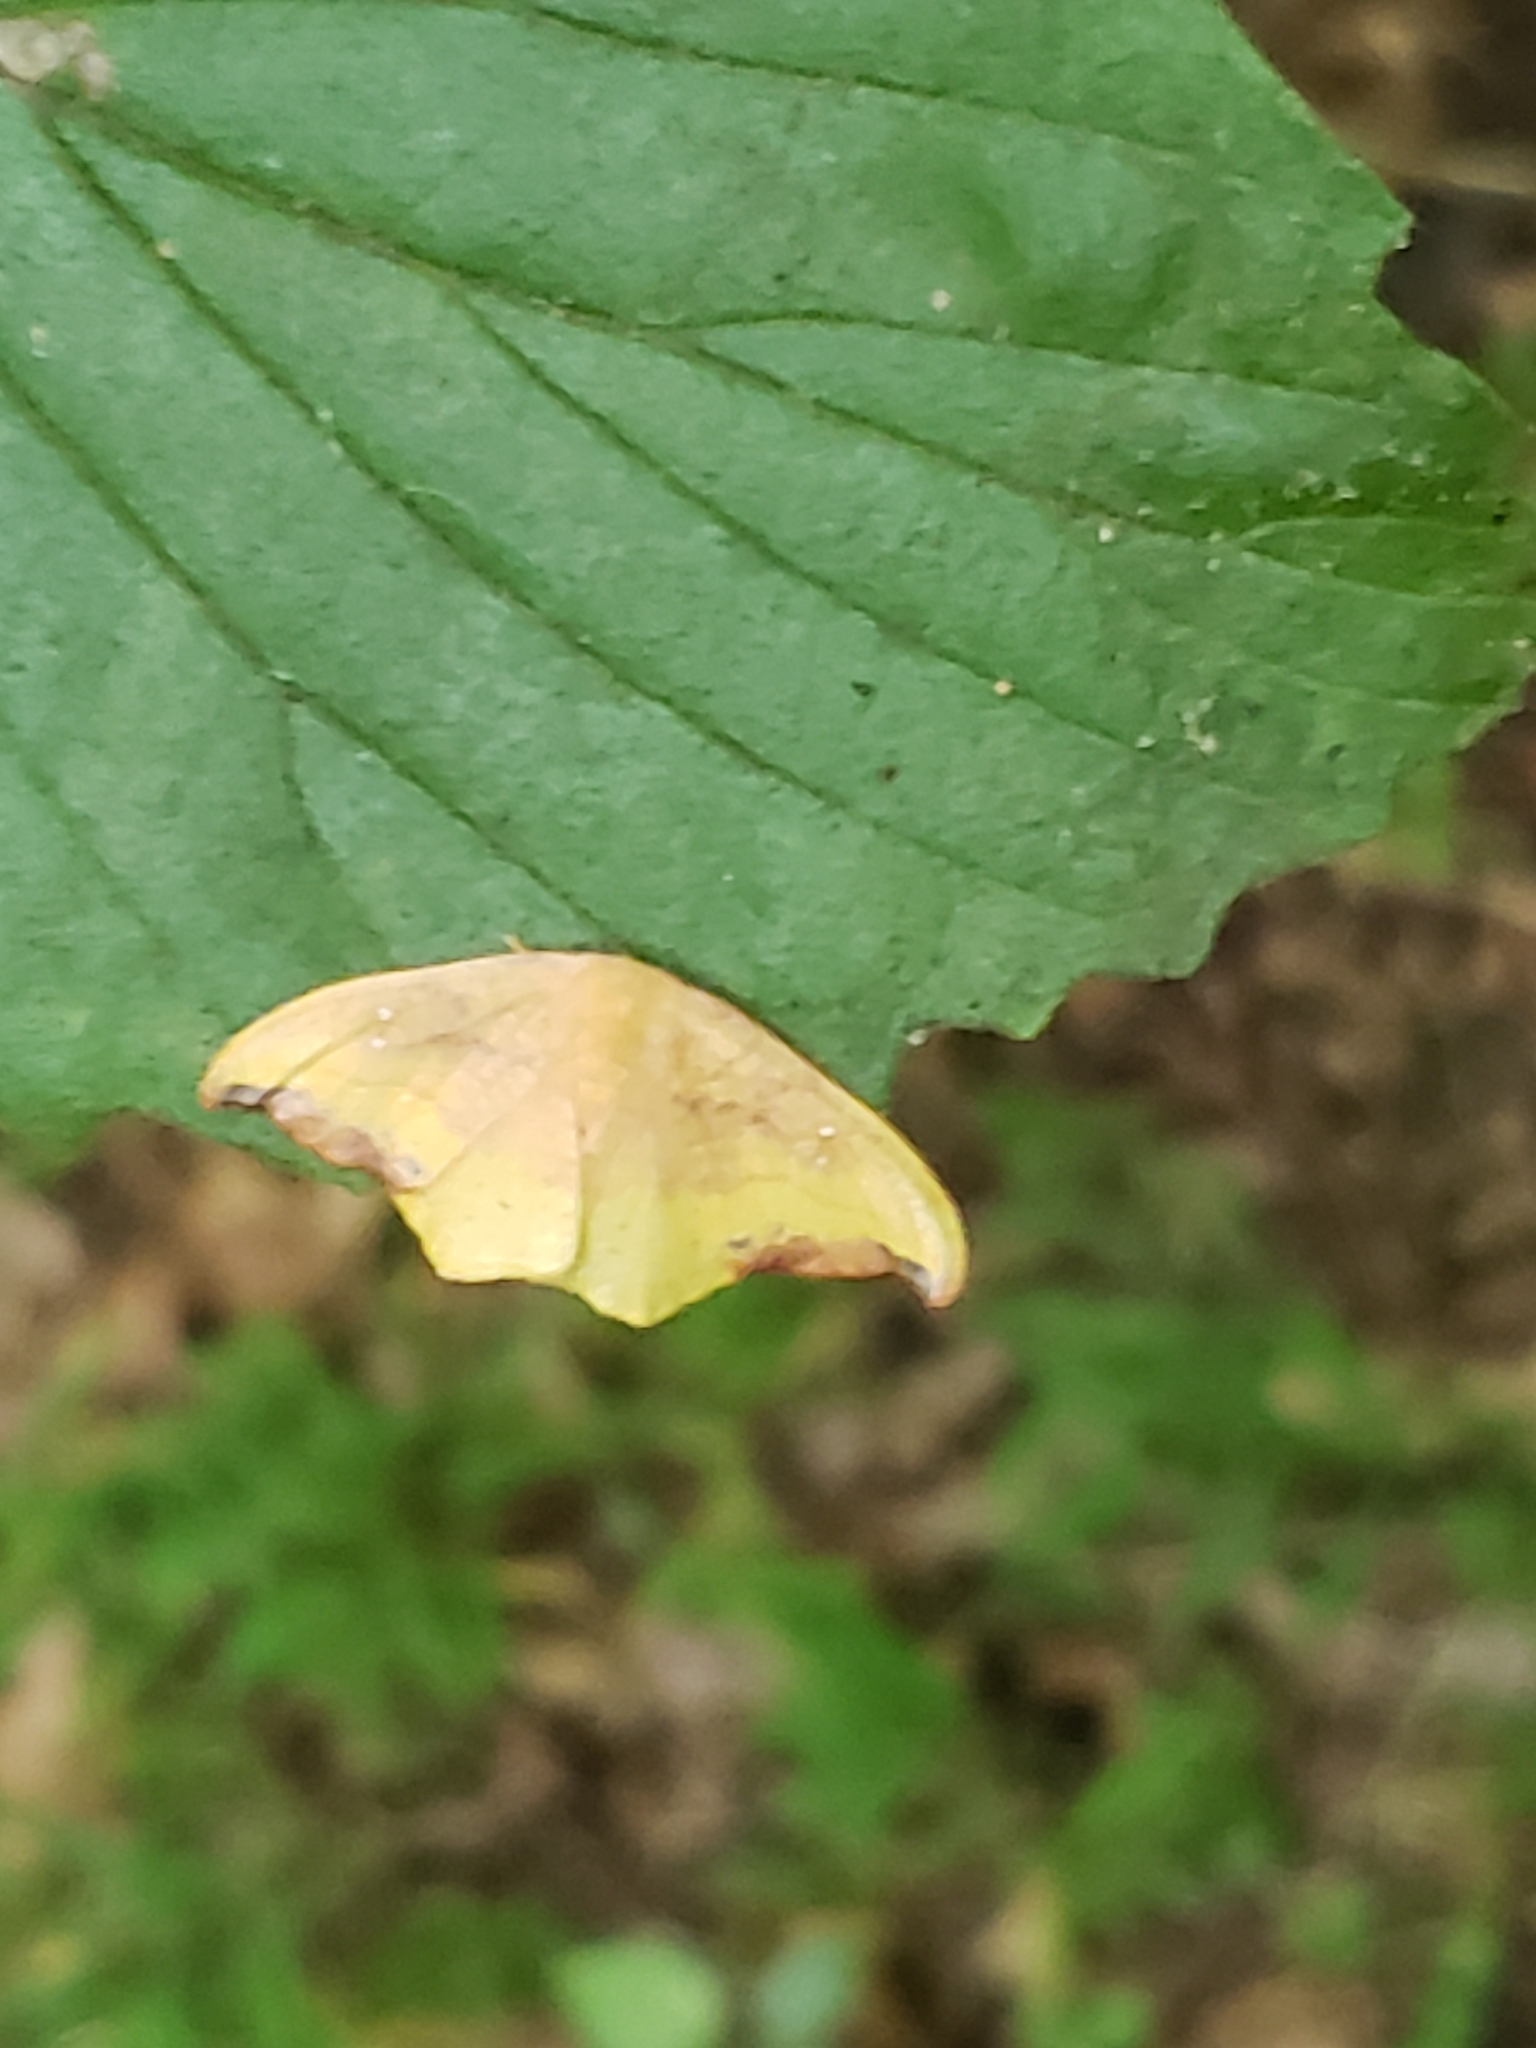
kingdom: Animalia
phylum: Arthropoda
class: Insecta
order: Lepidoptera
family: Drepanidae
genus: Oreta
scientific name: Oreta rosea
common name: Rose hooktip
